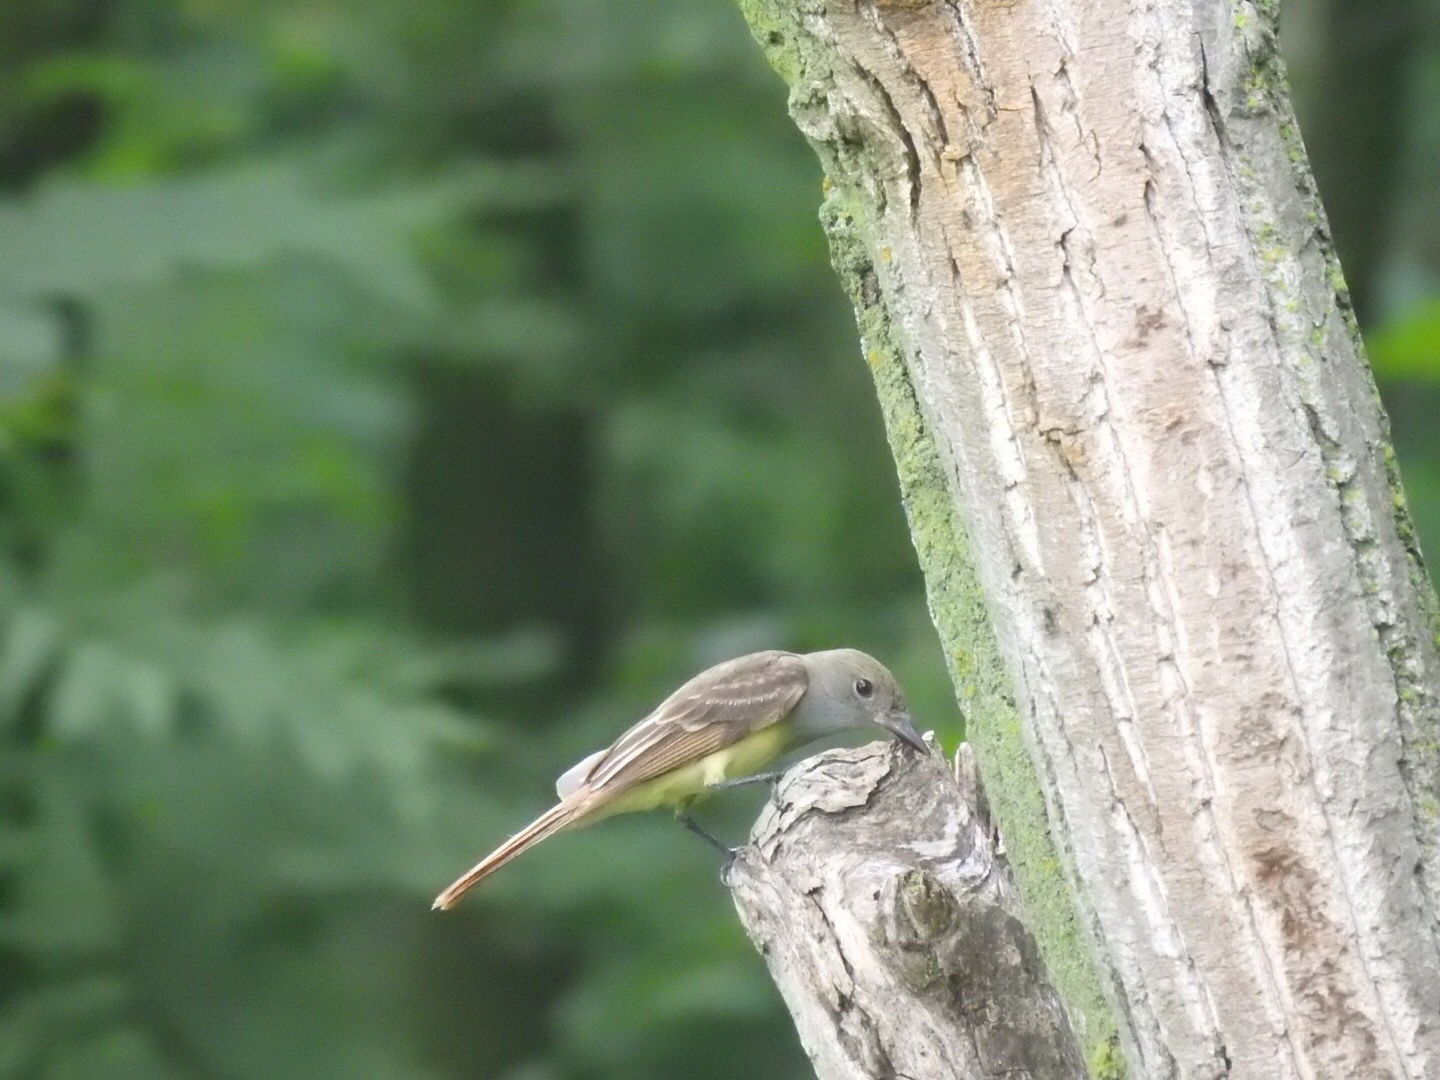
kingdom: Animalia
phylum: Chordata
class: Aves
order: Passeriformes
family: Tyrannidae
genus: Myiarchus
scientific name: Myiarchus crinitus
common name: Great crested flycatcher
